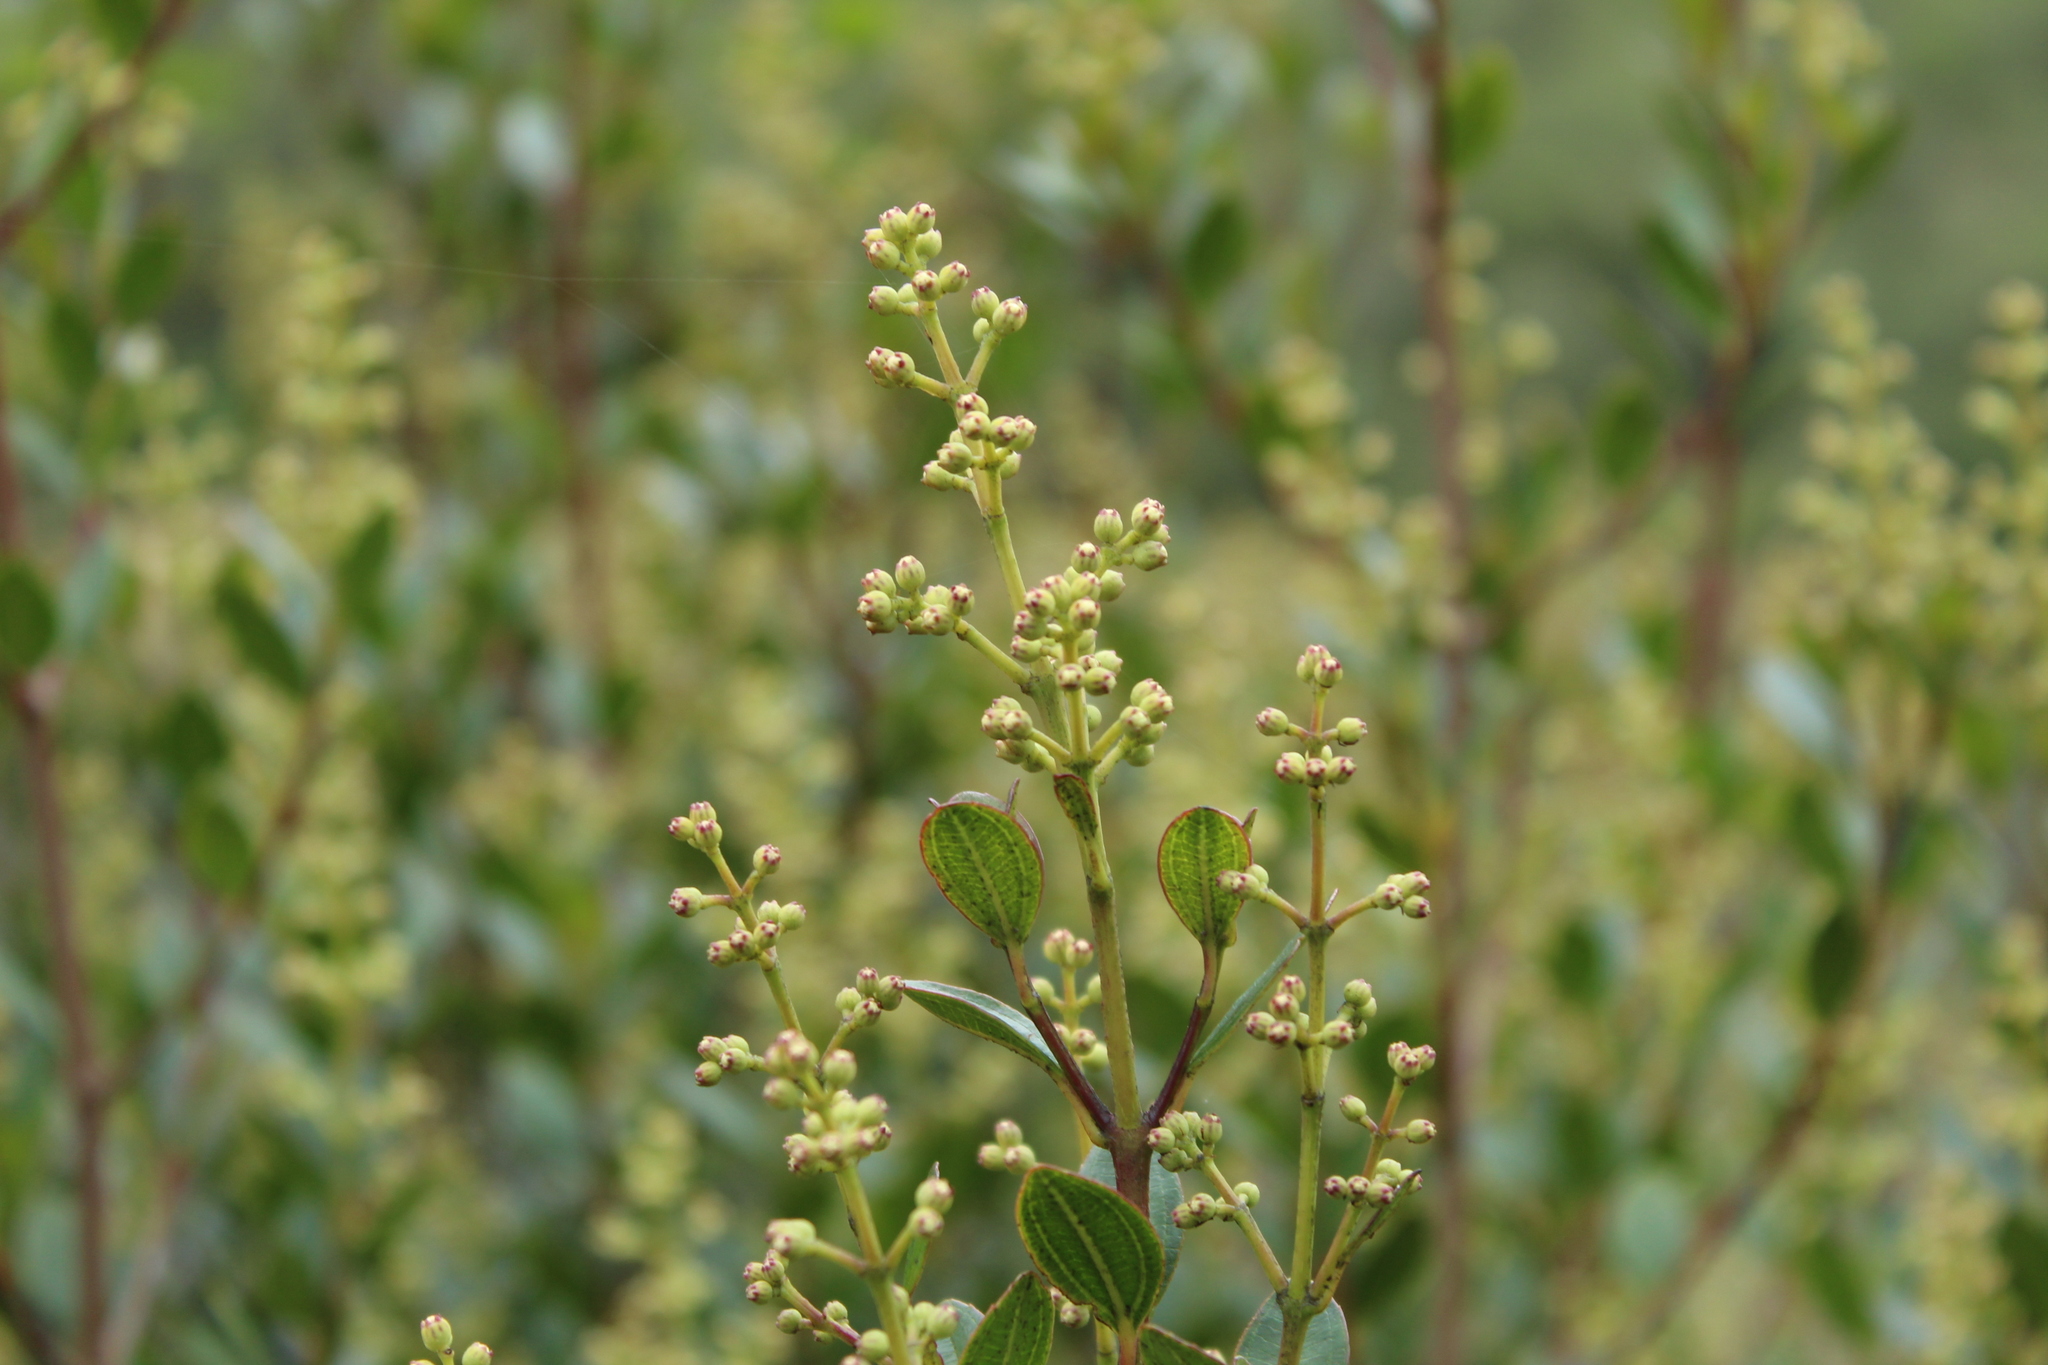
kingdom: Plantae
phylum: Tracheophyta
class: Magnoliopsida
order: Myrtales
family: Melastomataceae
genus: Miconia
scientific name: Miconia ligustrina
